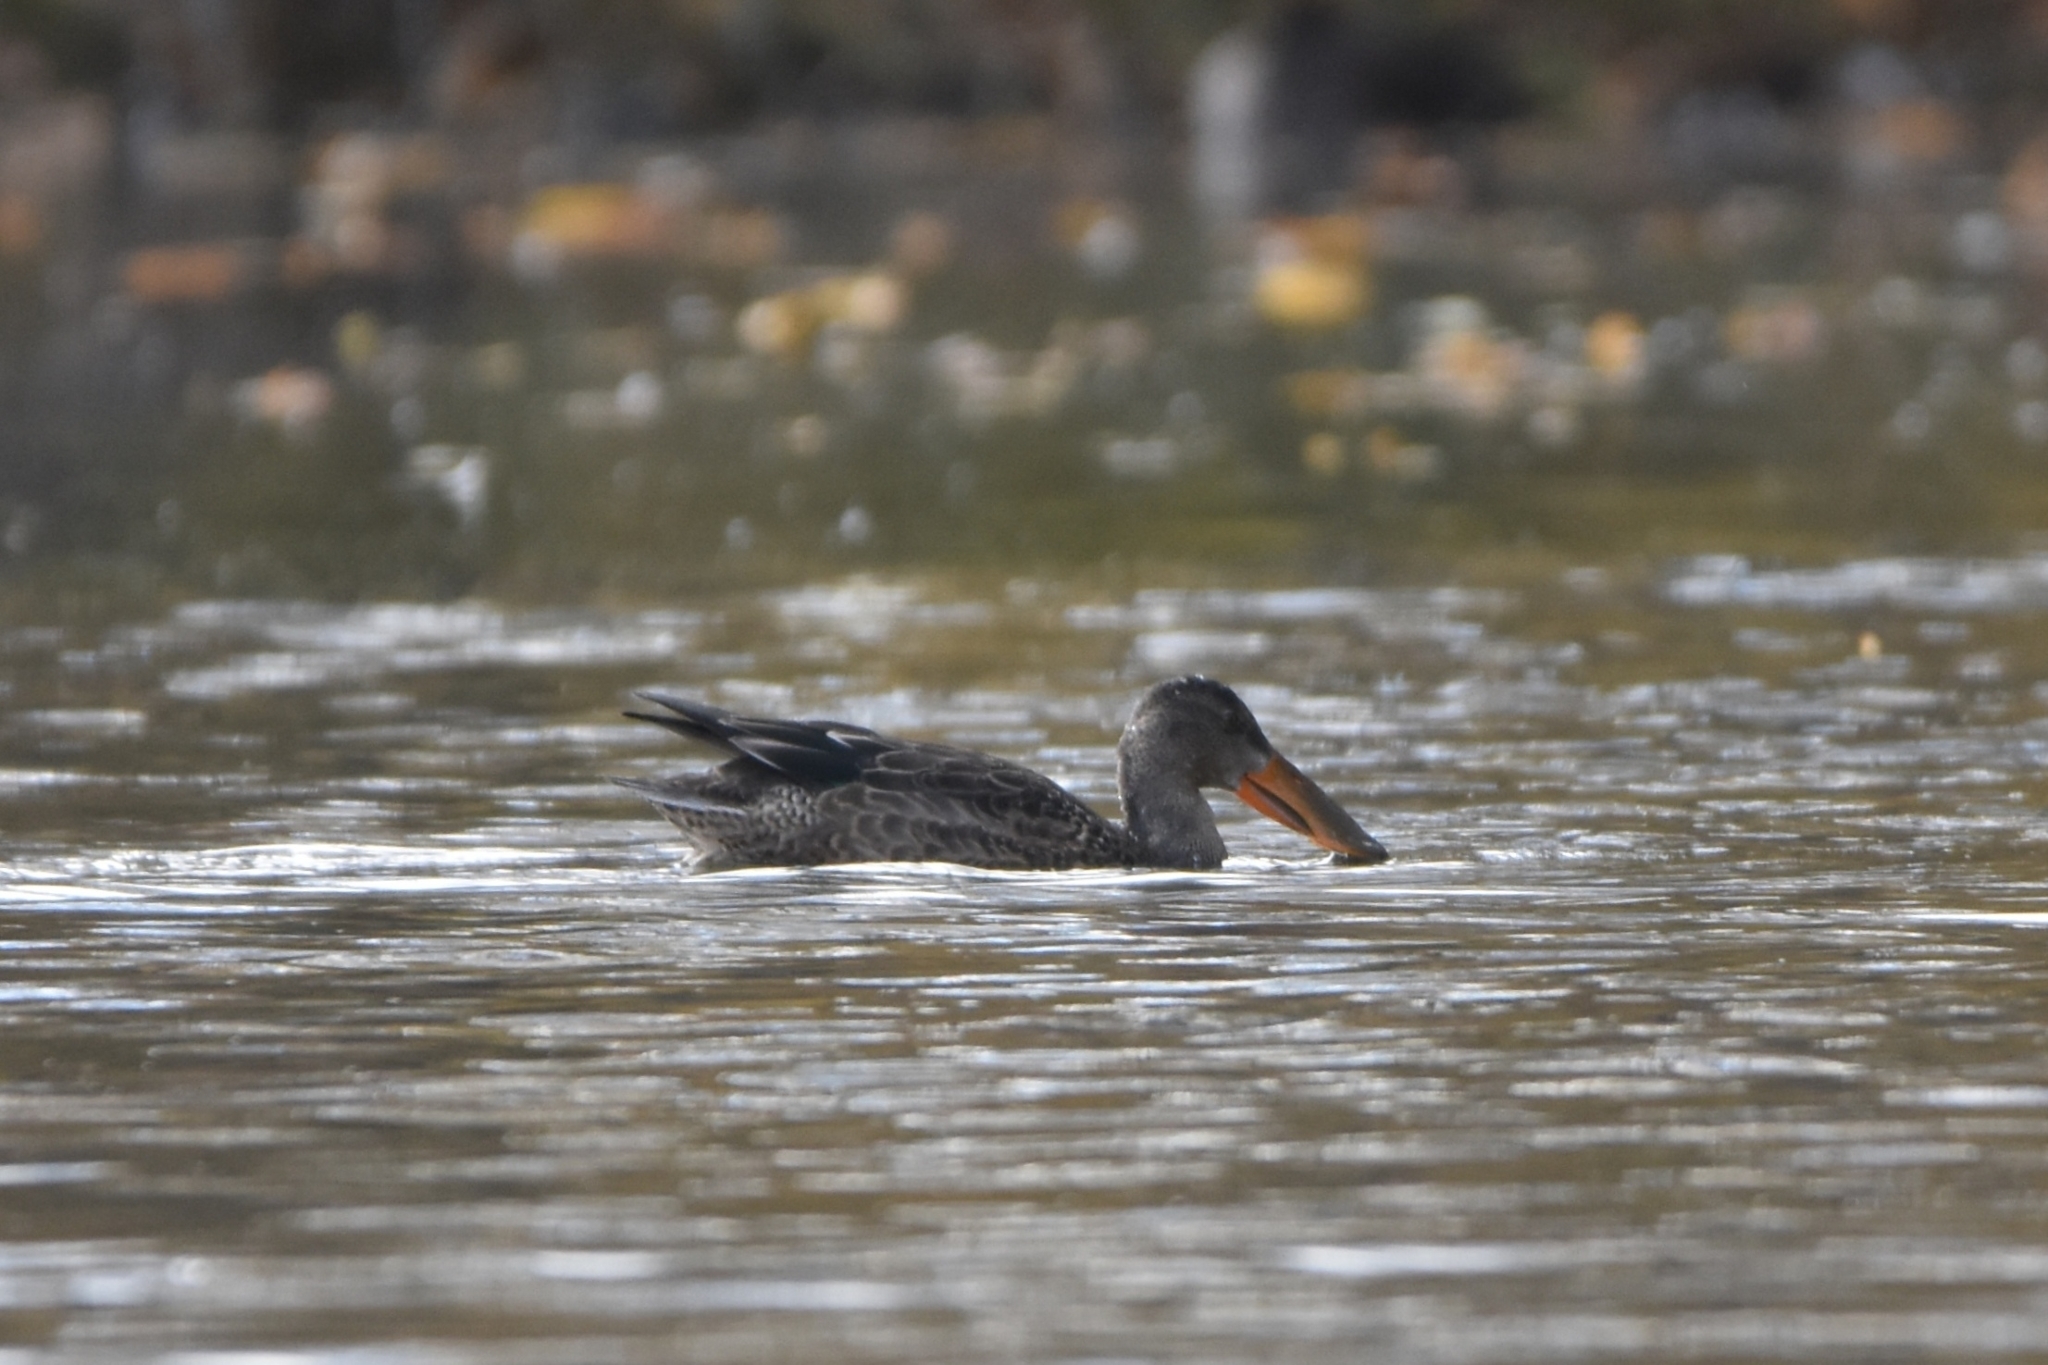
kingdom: Animalia
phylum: Chordata
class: Aves
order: Anseriformes
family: Anatidae
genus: Spatula
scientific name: Spatula clypeata
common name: Northern shoveler
